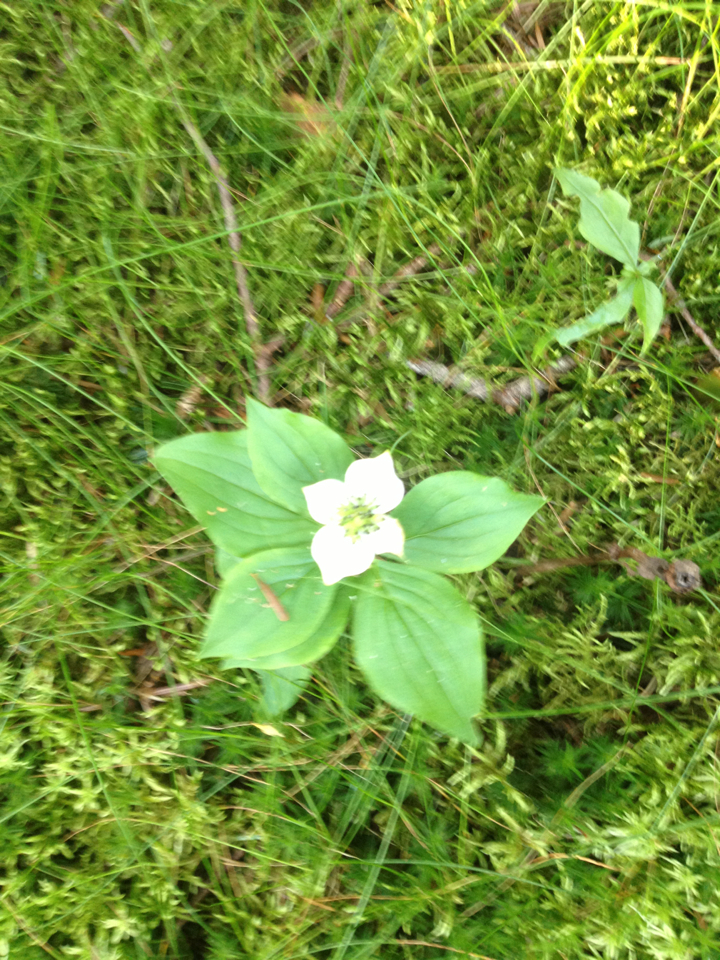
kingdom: Plantae
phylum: Tracheophyta
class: Magnoliopsida
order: Cornales
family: Cornaceae
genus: Cornus
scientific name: Cornus canadensis
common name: Creeping dogwood
